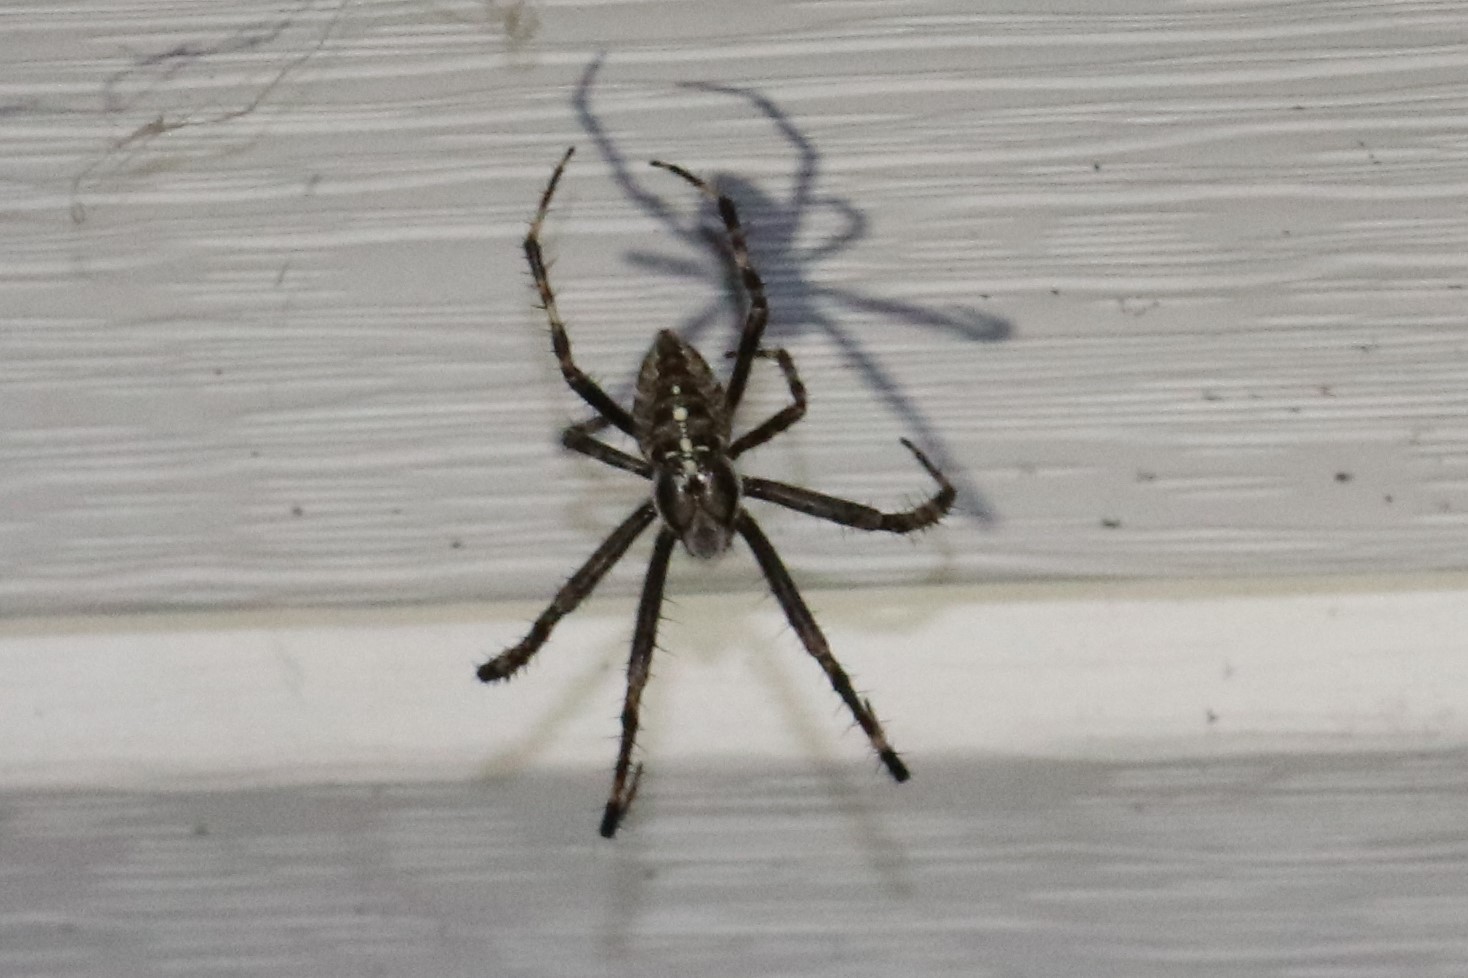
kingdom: Animalia
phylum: Arthropoda
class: Arachnida
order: Araneae
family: Araneidae
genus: Araneus
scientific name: Araneus diadematus
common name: Cross orbweaver
